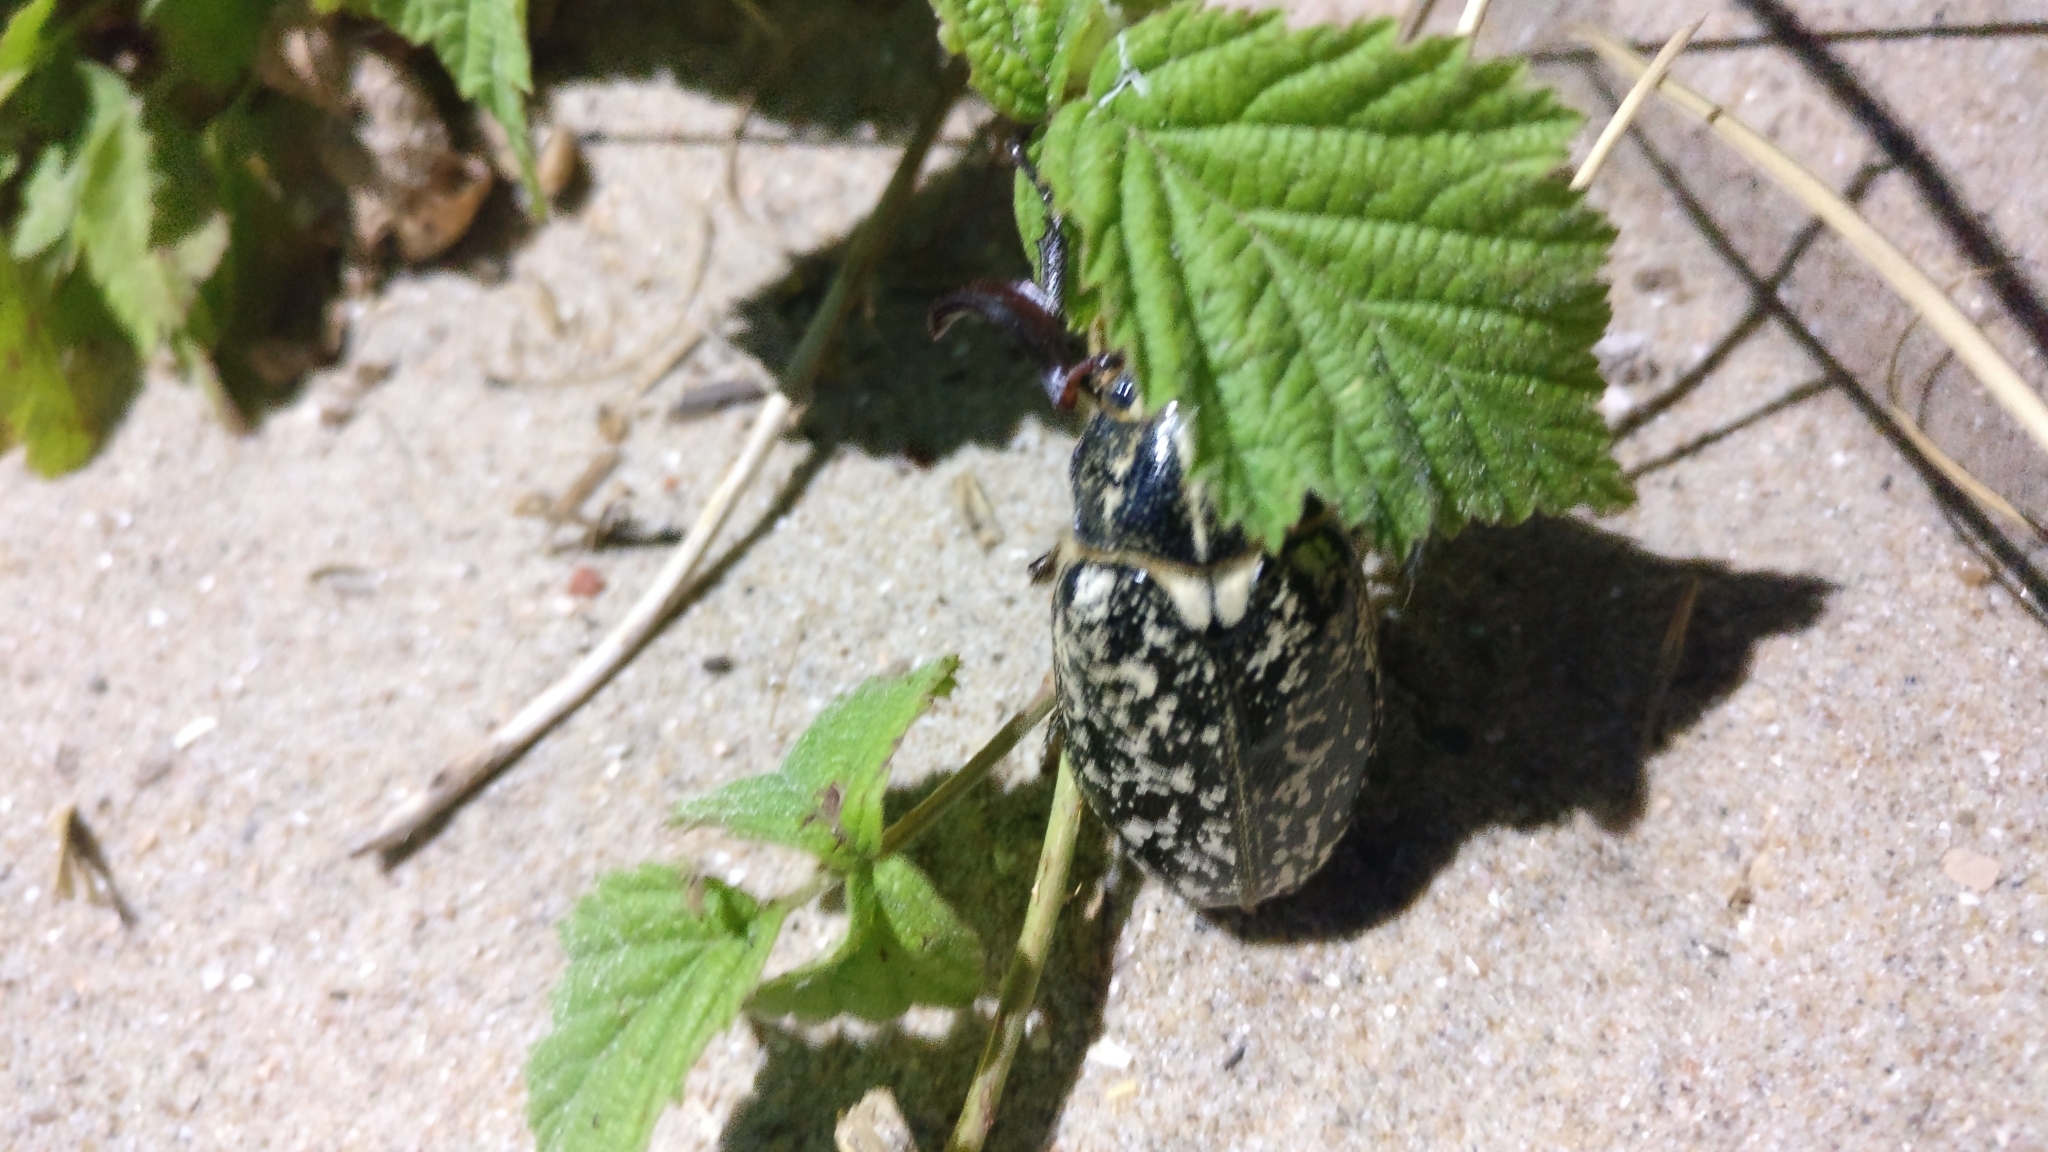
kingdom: Animalia
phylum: Arthropoda
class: Insecta
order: Coleoptera
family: Scarabaeidae
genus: Polyphylla
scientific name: Polyphylla fullo
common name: Pine chafer
